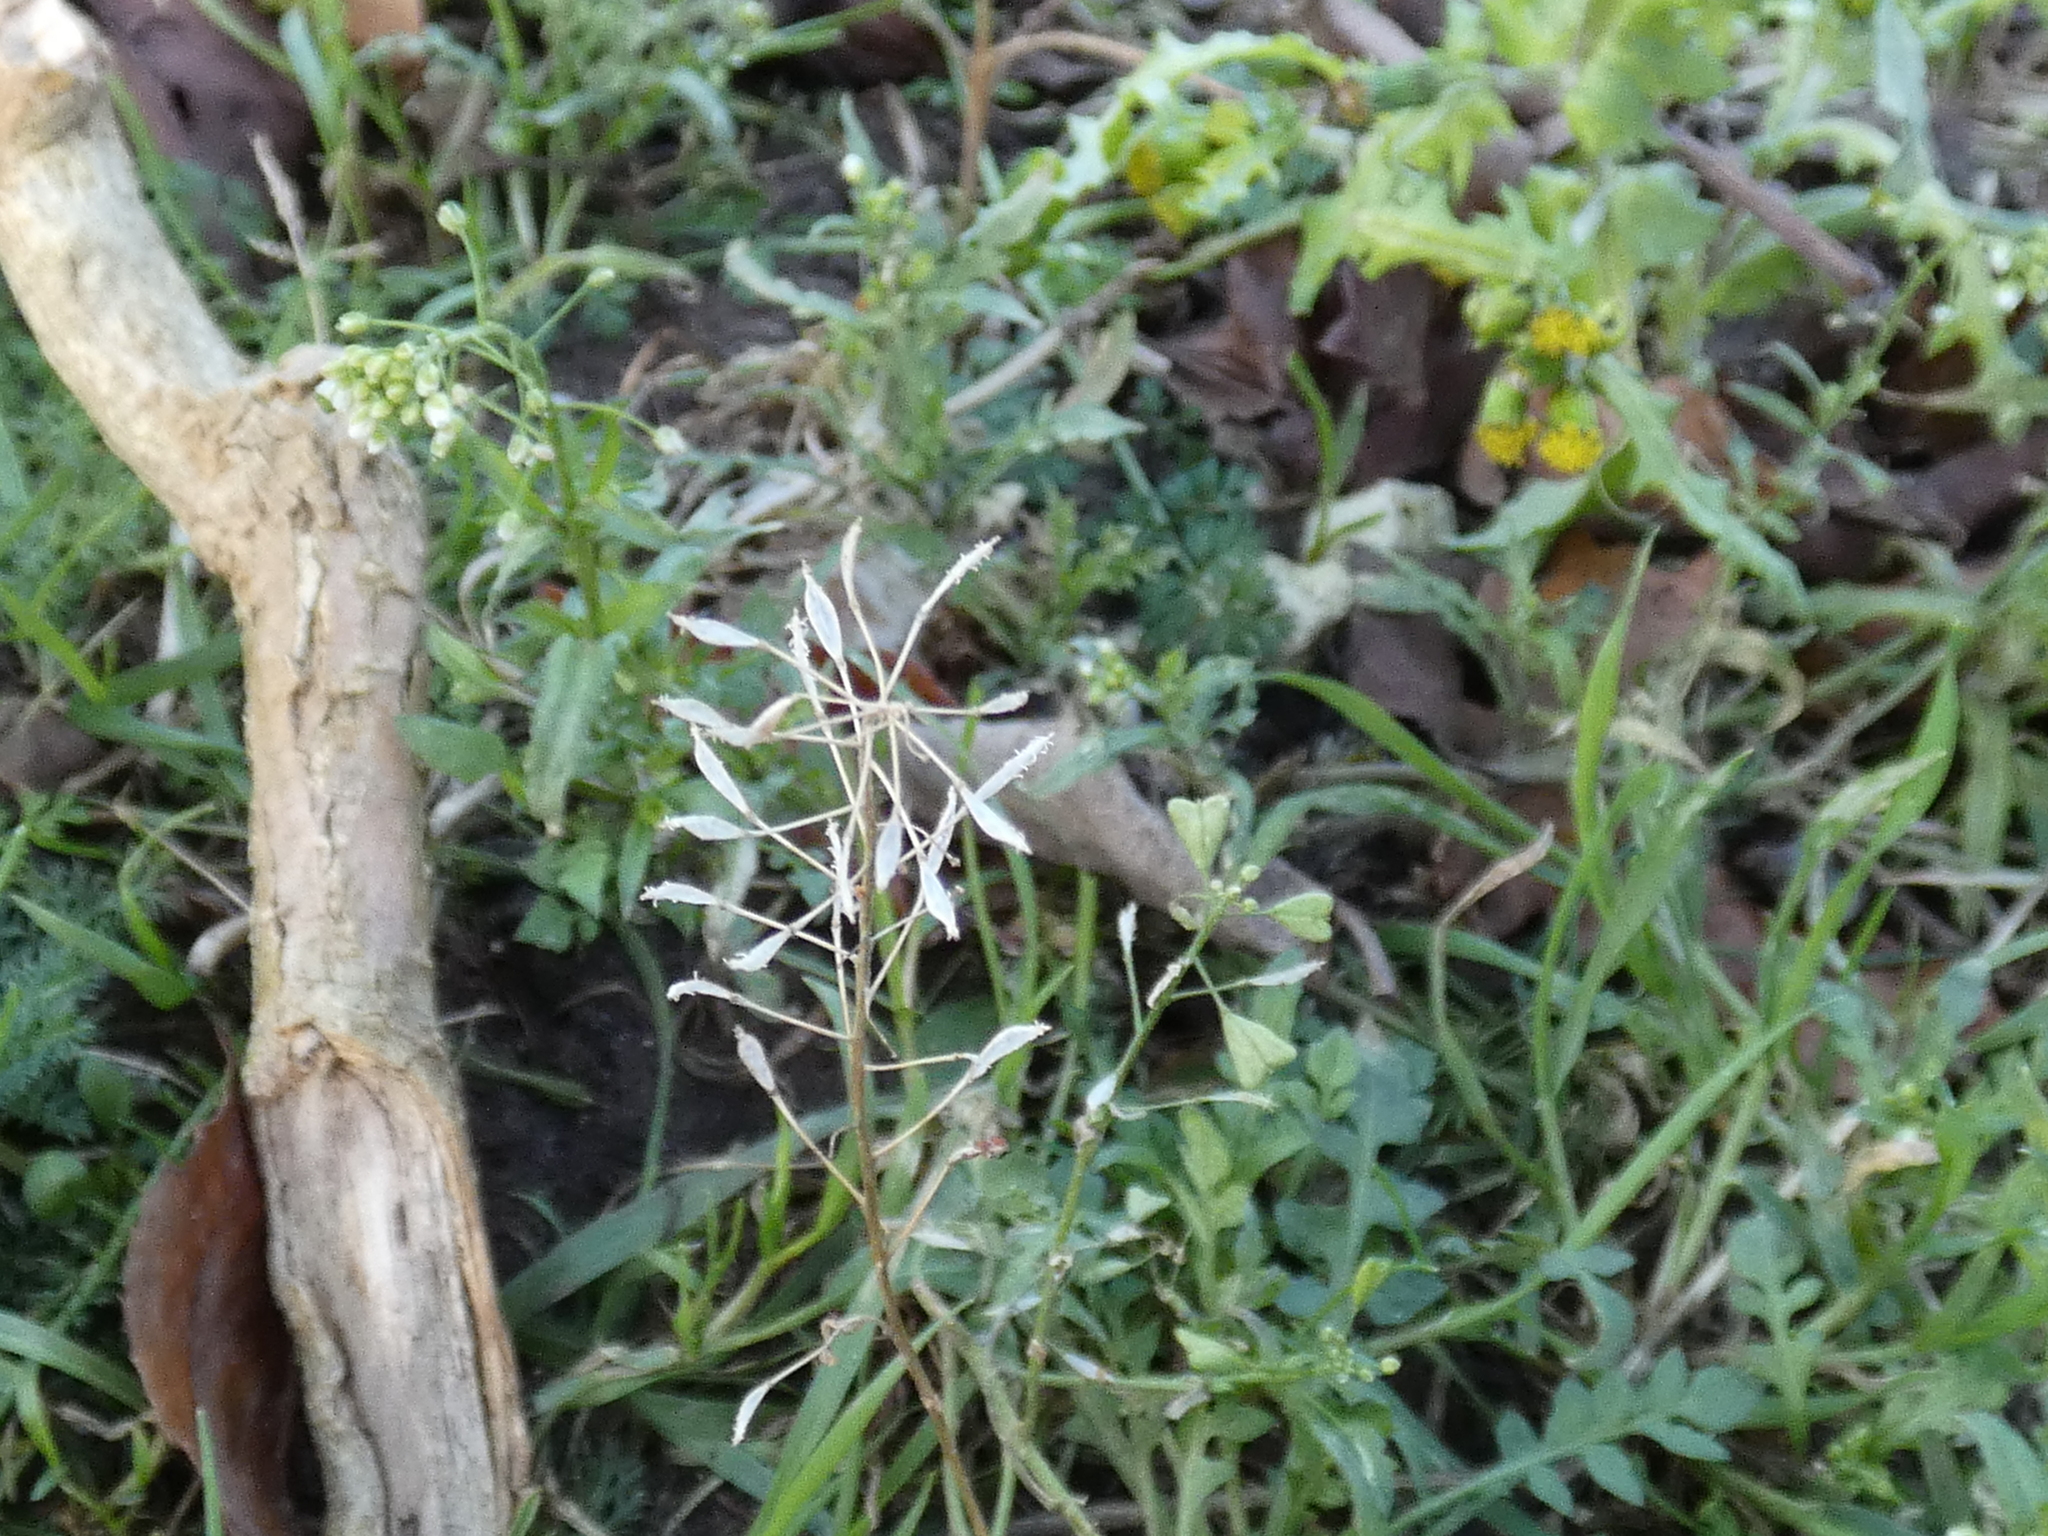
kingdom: Plantae
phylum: Tracheophyta
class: Magnoliopsida
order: Brassicales
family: Brassicaceae
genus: Capsella
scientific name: Capsella bursa-pastoris
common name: Shepherd's purse
